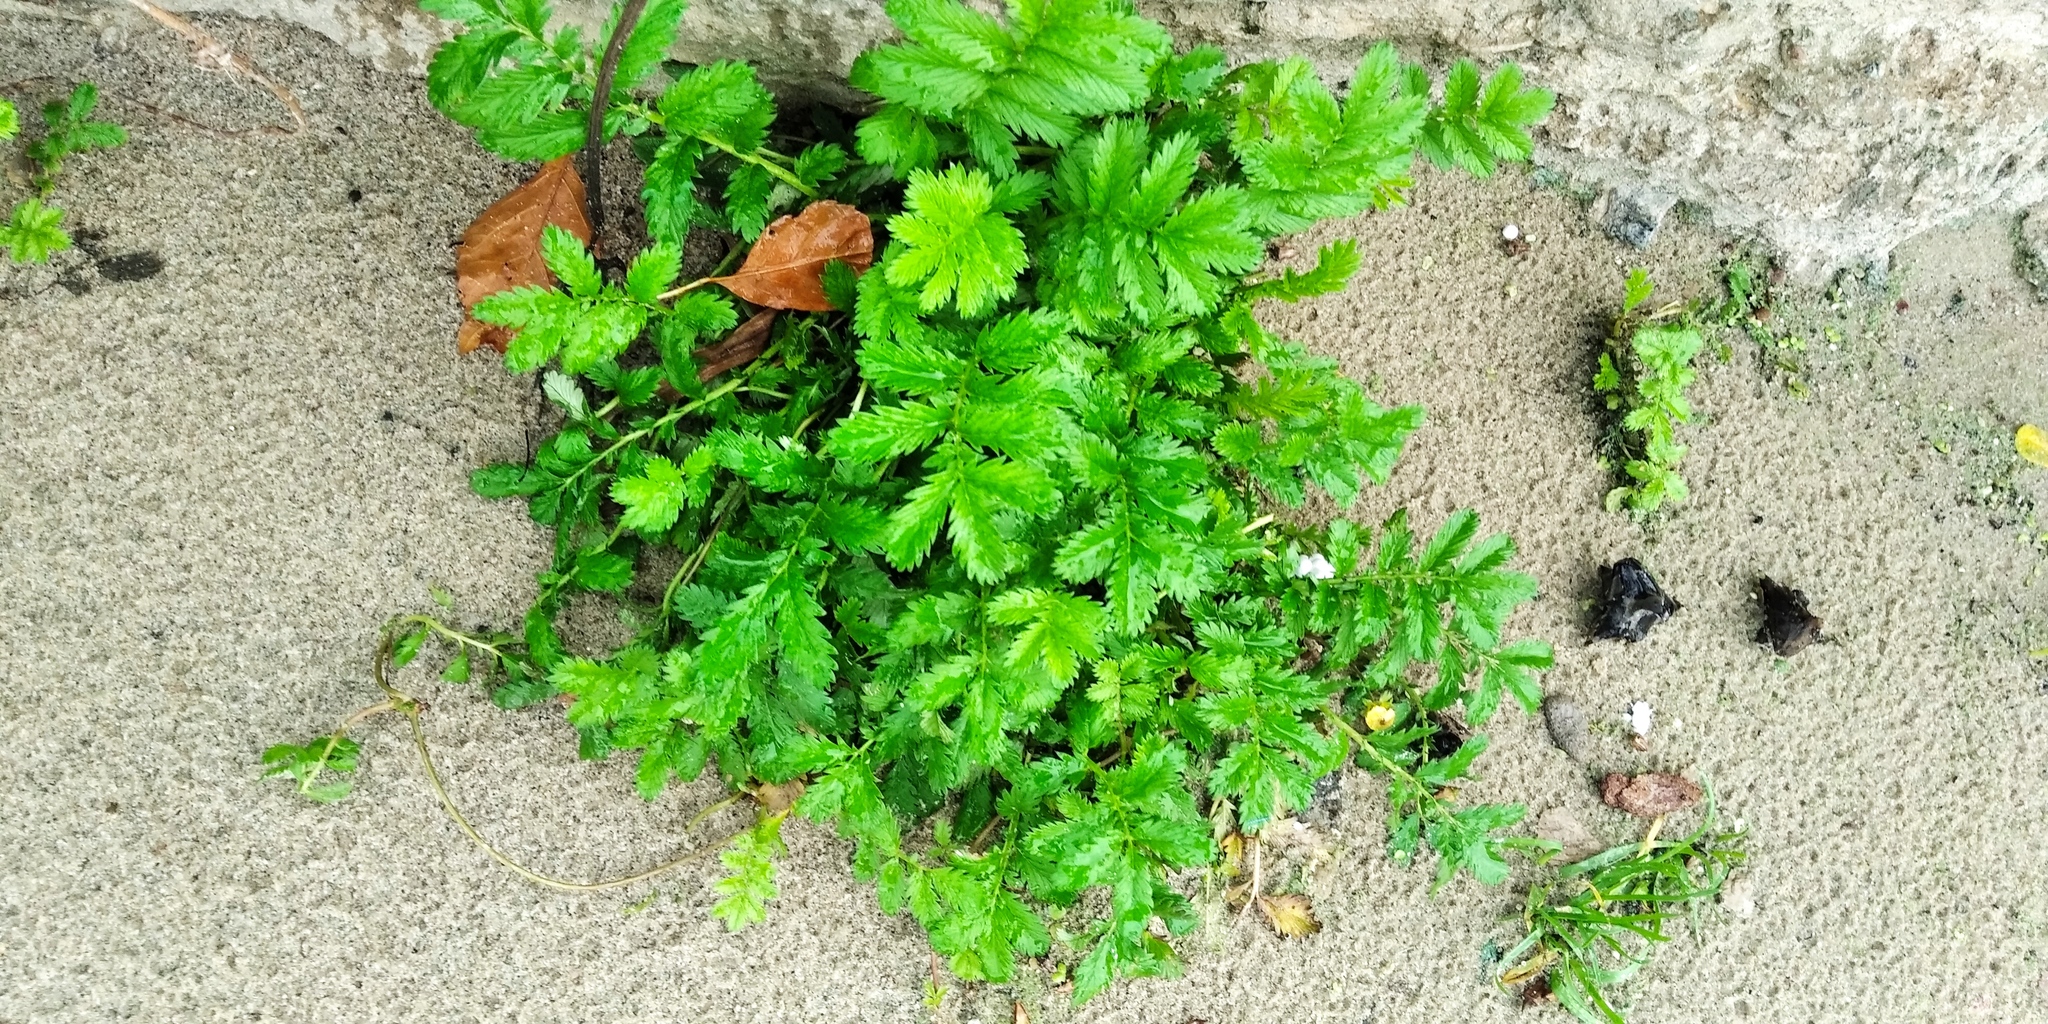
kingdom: Plantae
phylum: Tracheophyta
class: Magnoliopsida
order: Rosales
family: Rosaceae
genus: Argentina
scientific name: Argentina anserina
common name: Common silverweed
